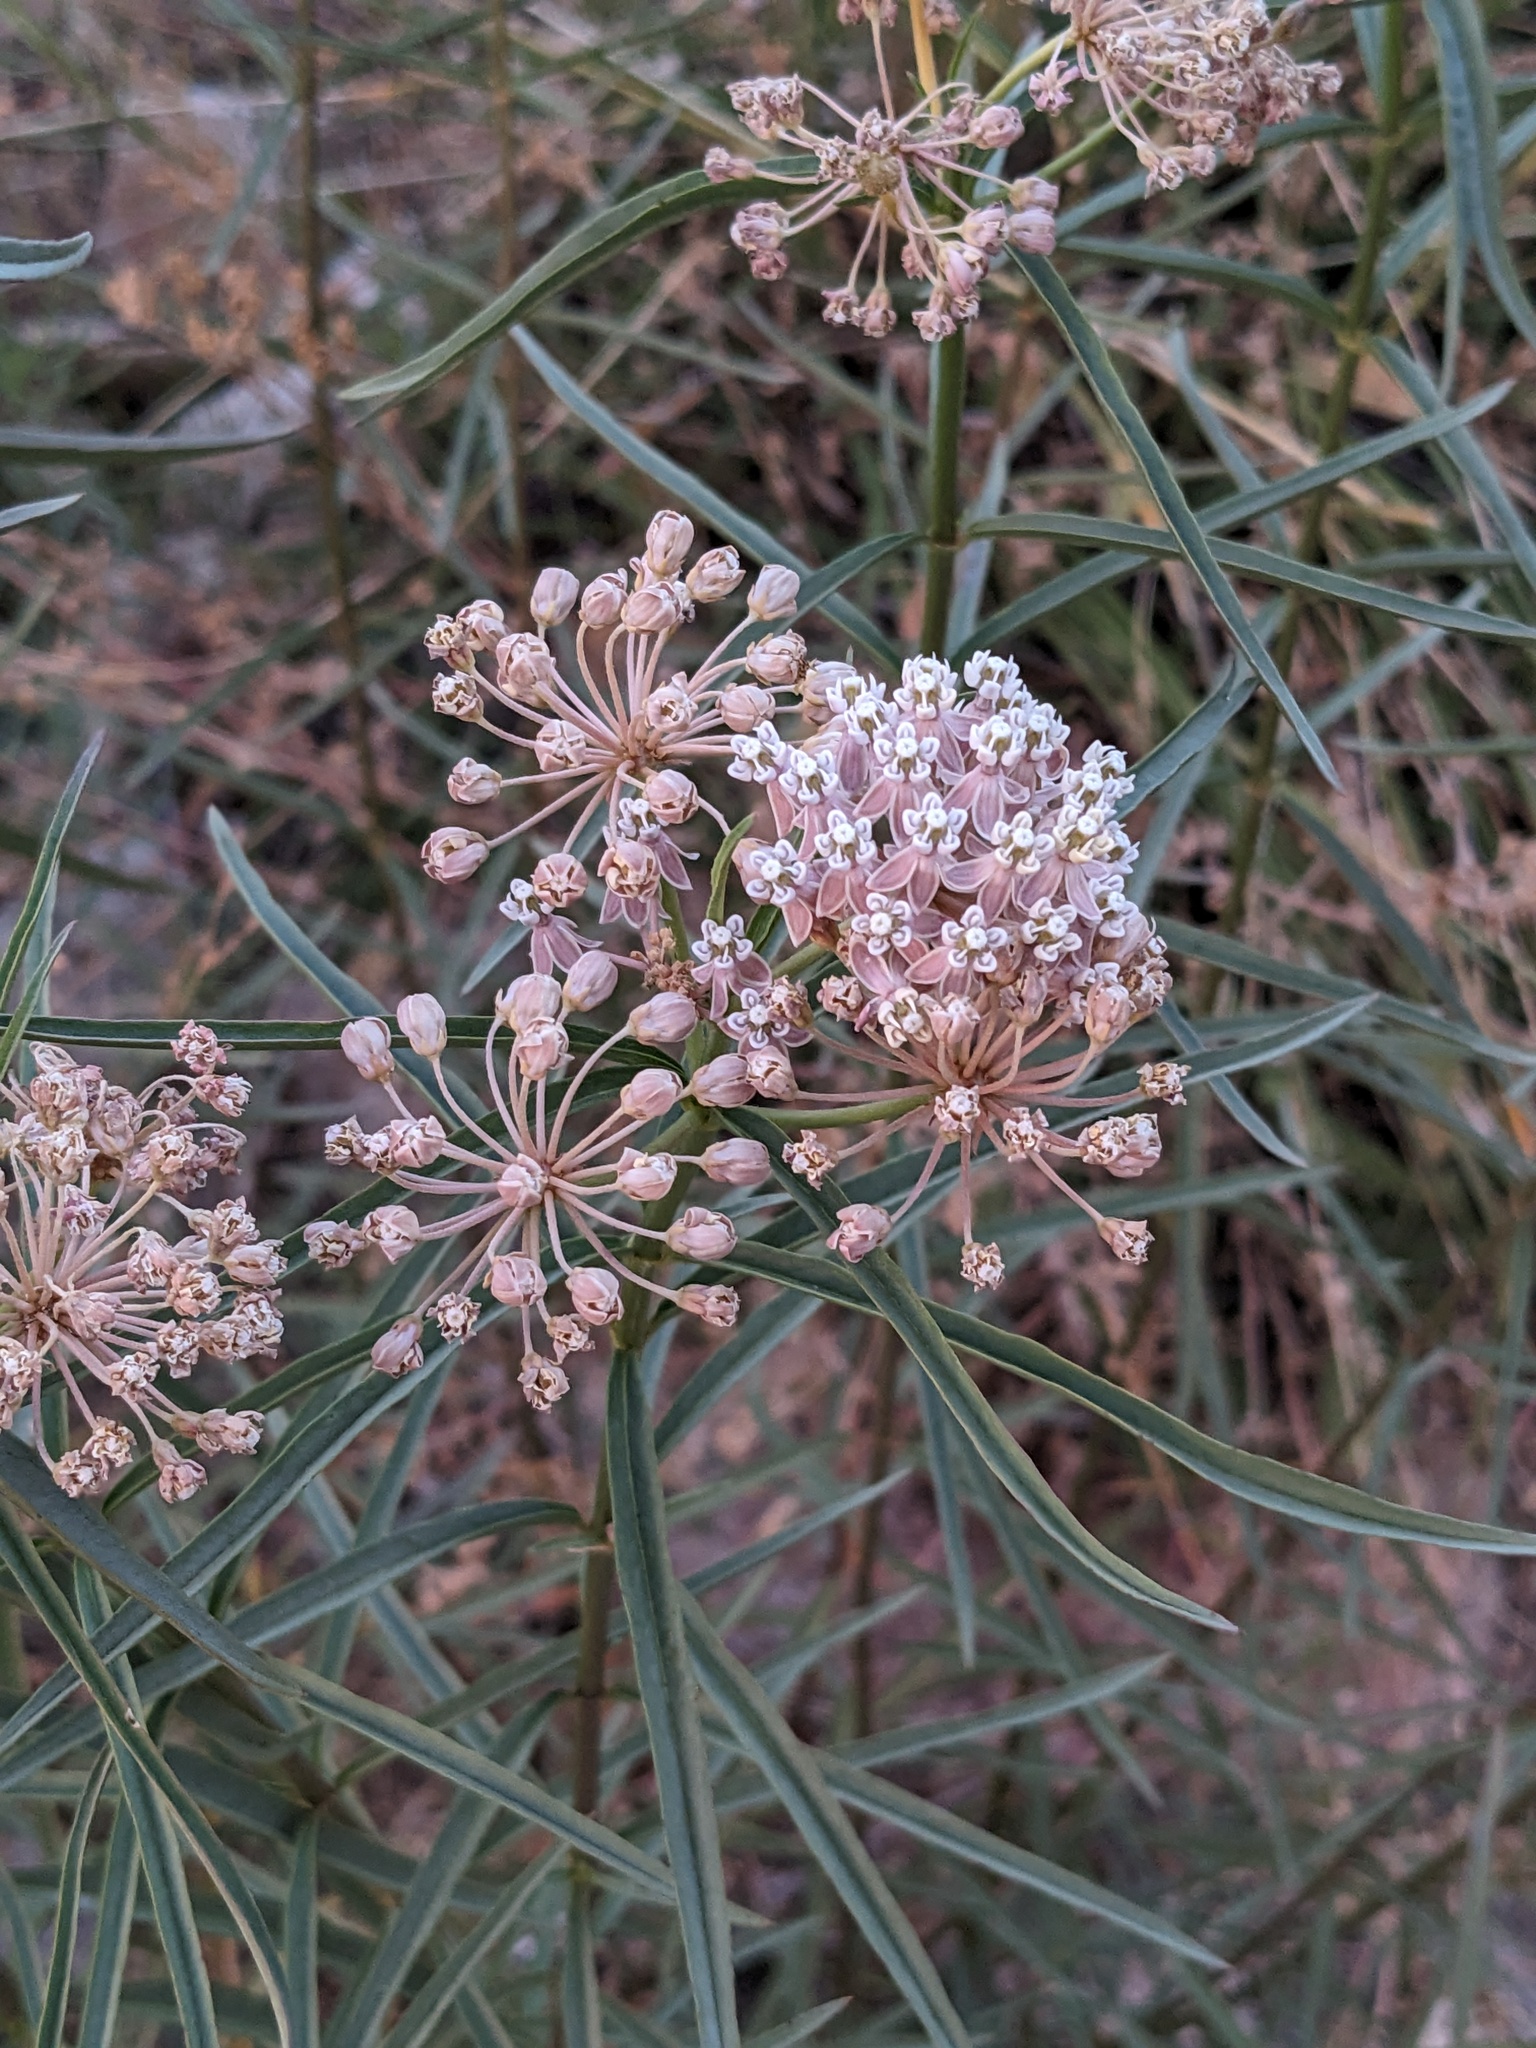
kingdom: Plantae
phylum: Tracheophyta
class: Magnoliopsida
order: Gentianales
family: Apocynaceae
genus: Asclepias
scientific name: Asclepias fascicularis
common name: Mexican milkweed
